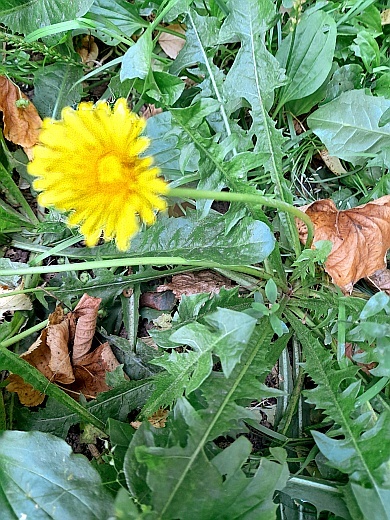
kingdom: Plantae
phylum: Tracheophyta
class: Magnoliopsida
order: Asterales
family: Asteraceae
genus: Taraxacum
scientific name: Taraxacum officinale
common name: Common dandelion
